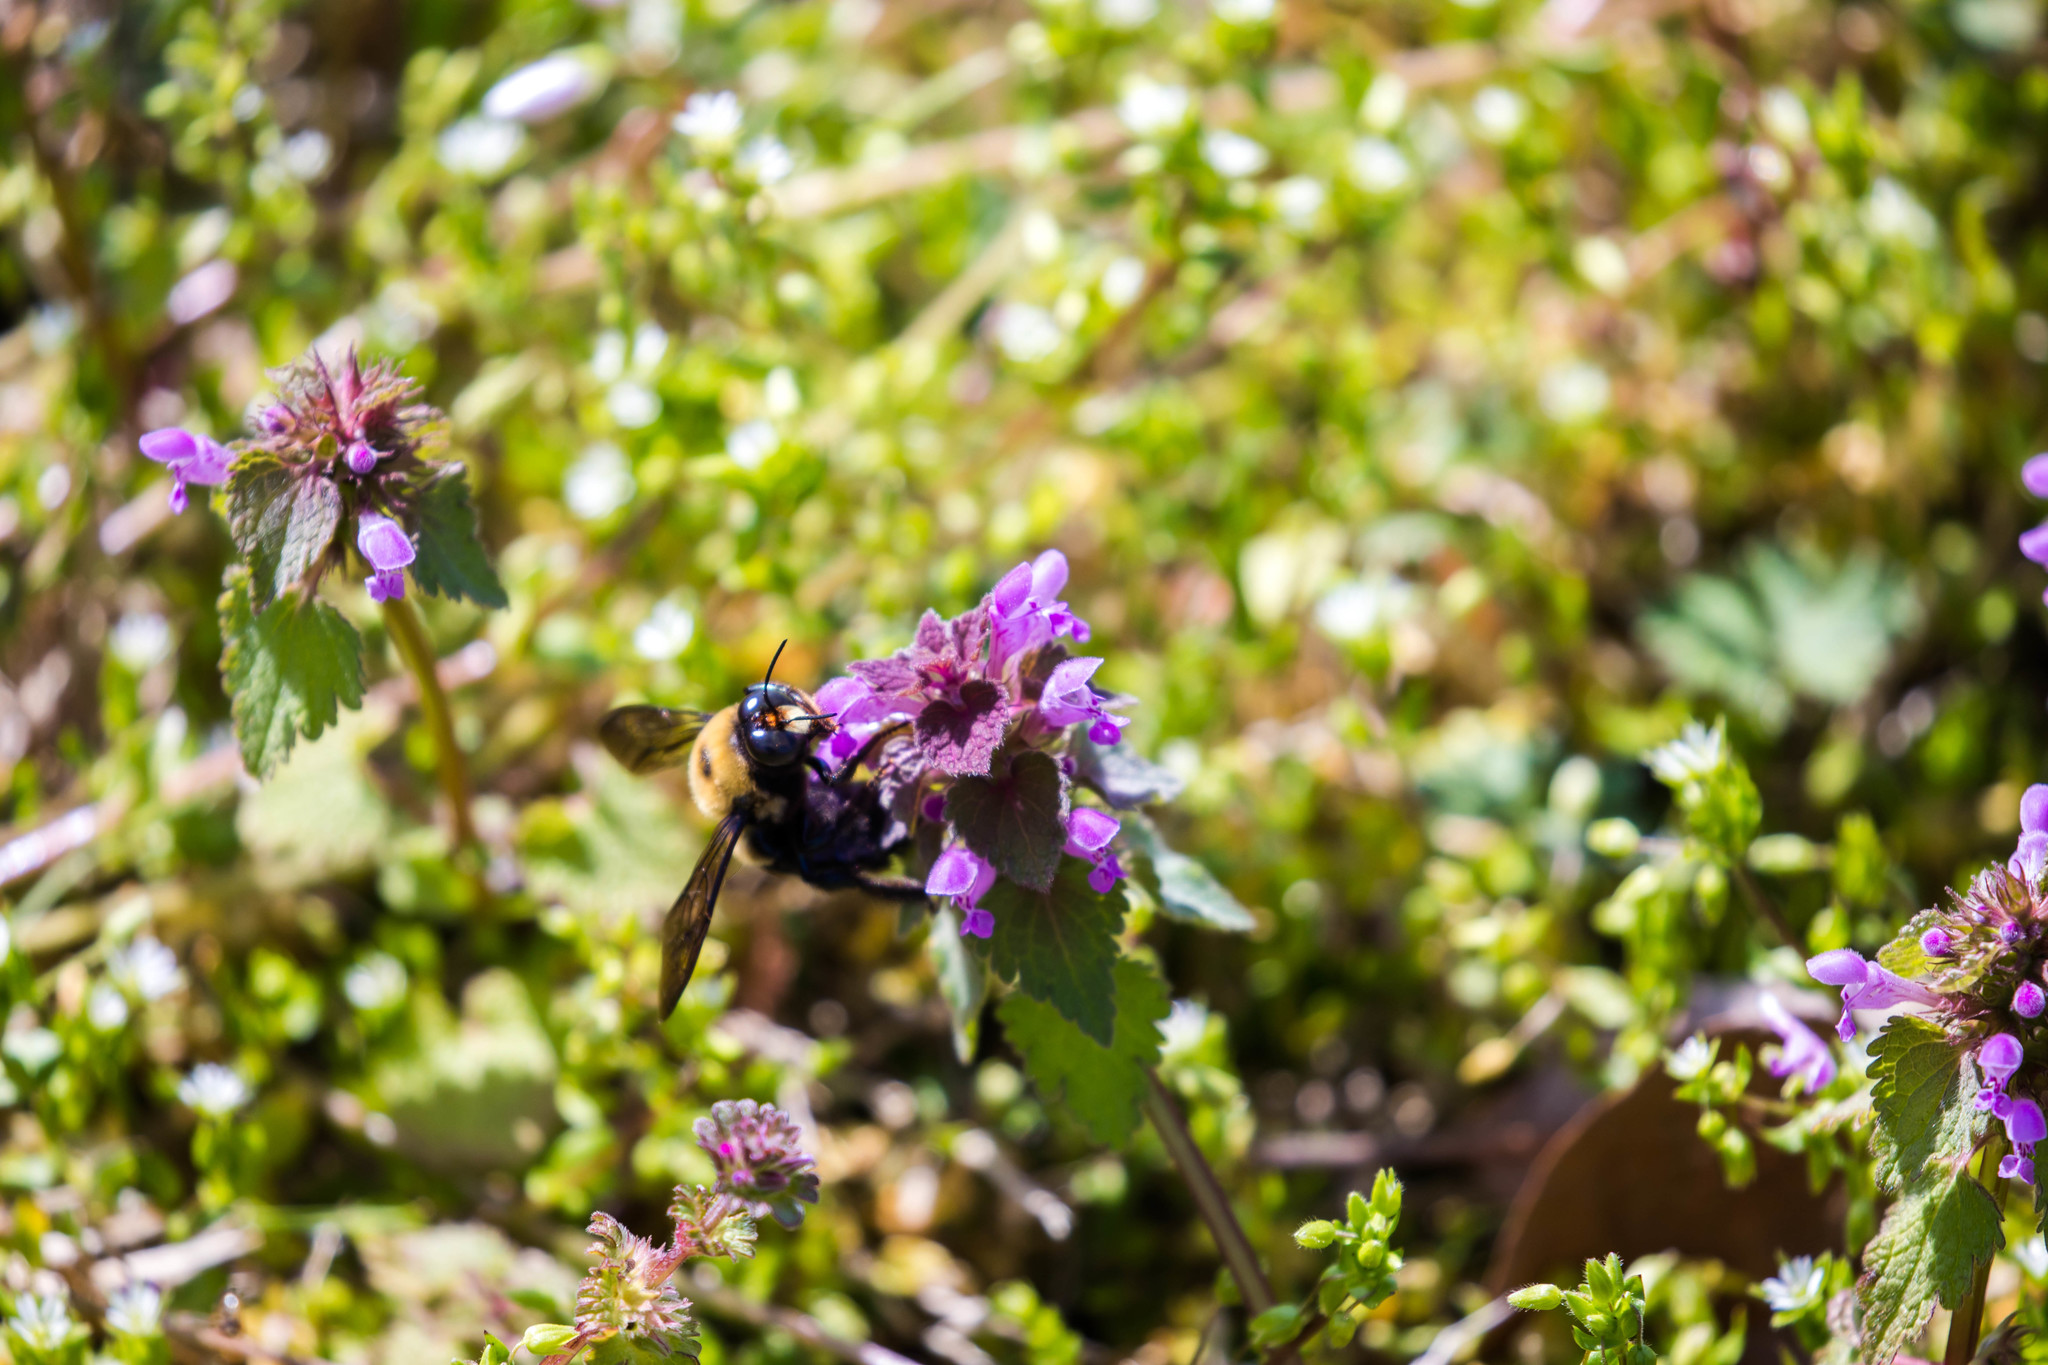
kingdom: Animalia
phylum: Arthropoda
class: Insecta
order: Hymenoptera
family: Apidae
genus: Xylocopa
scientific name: Xylocopa virginica
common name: Carpenter bee
